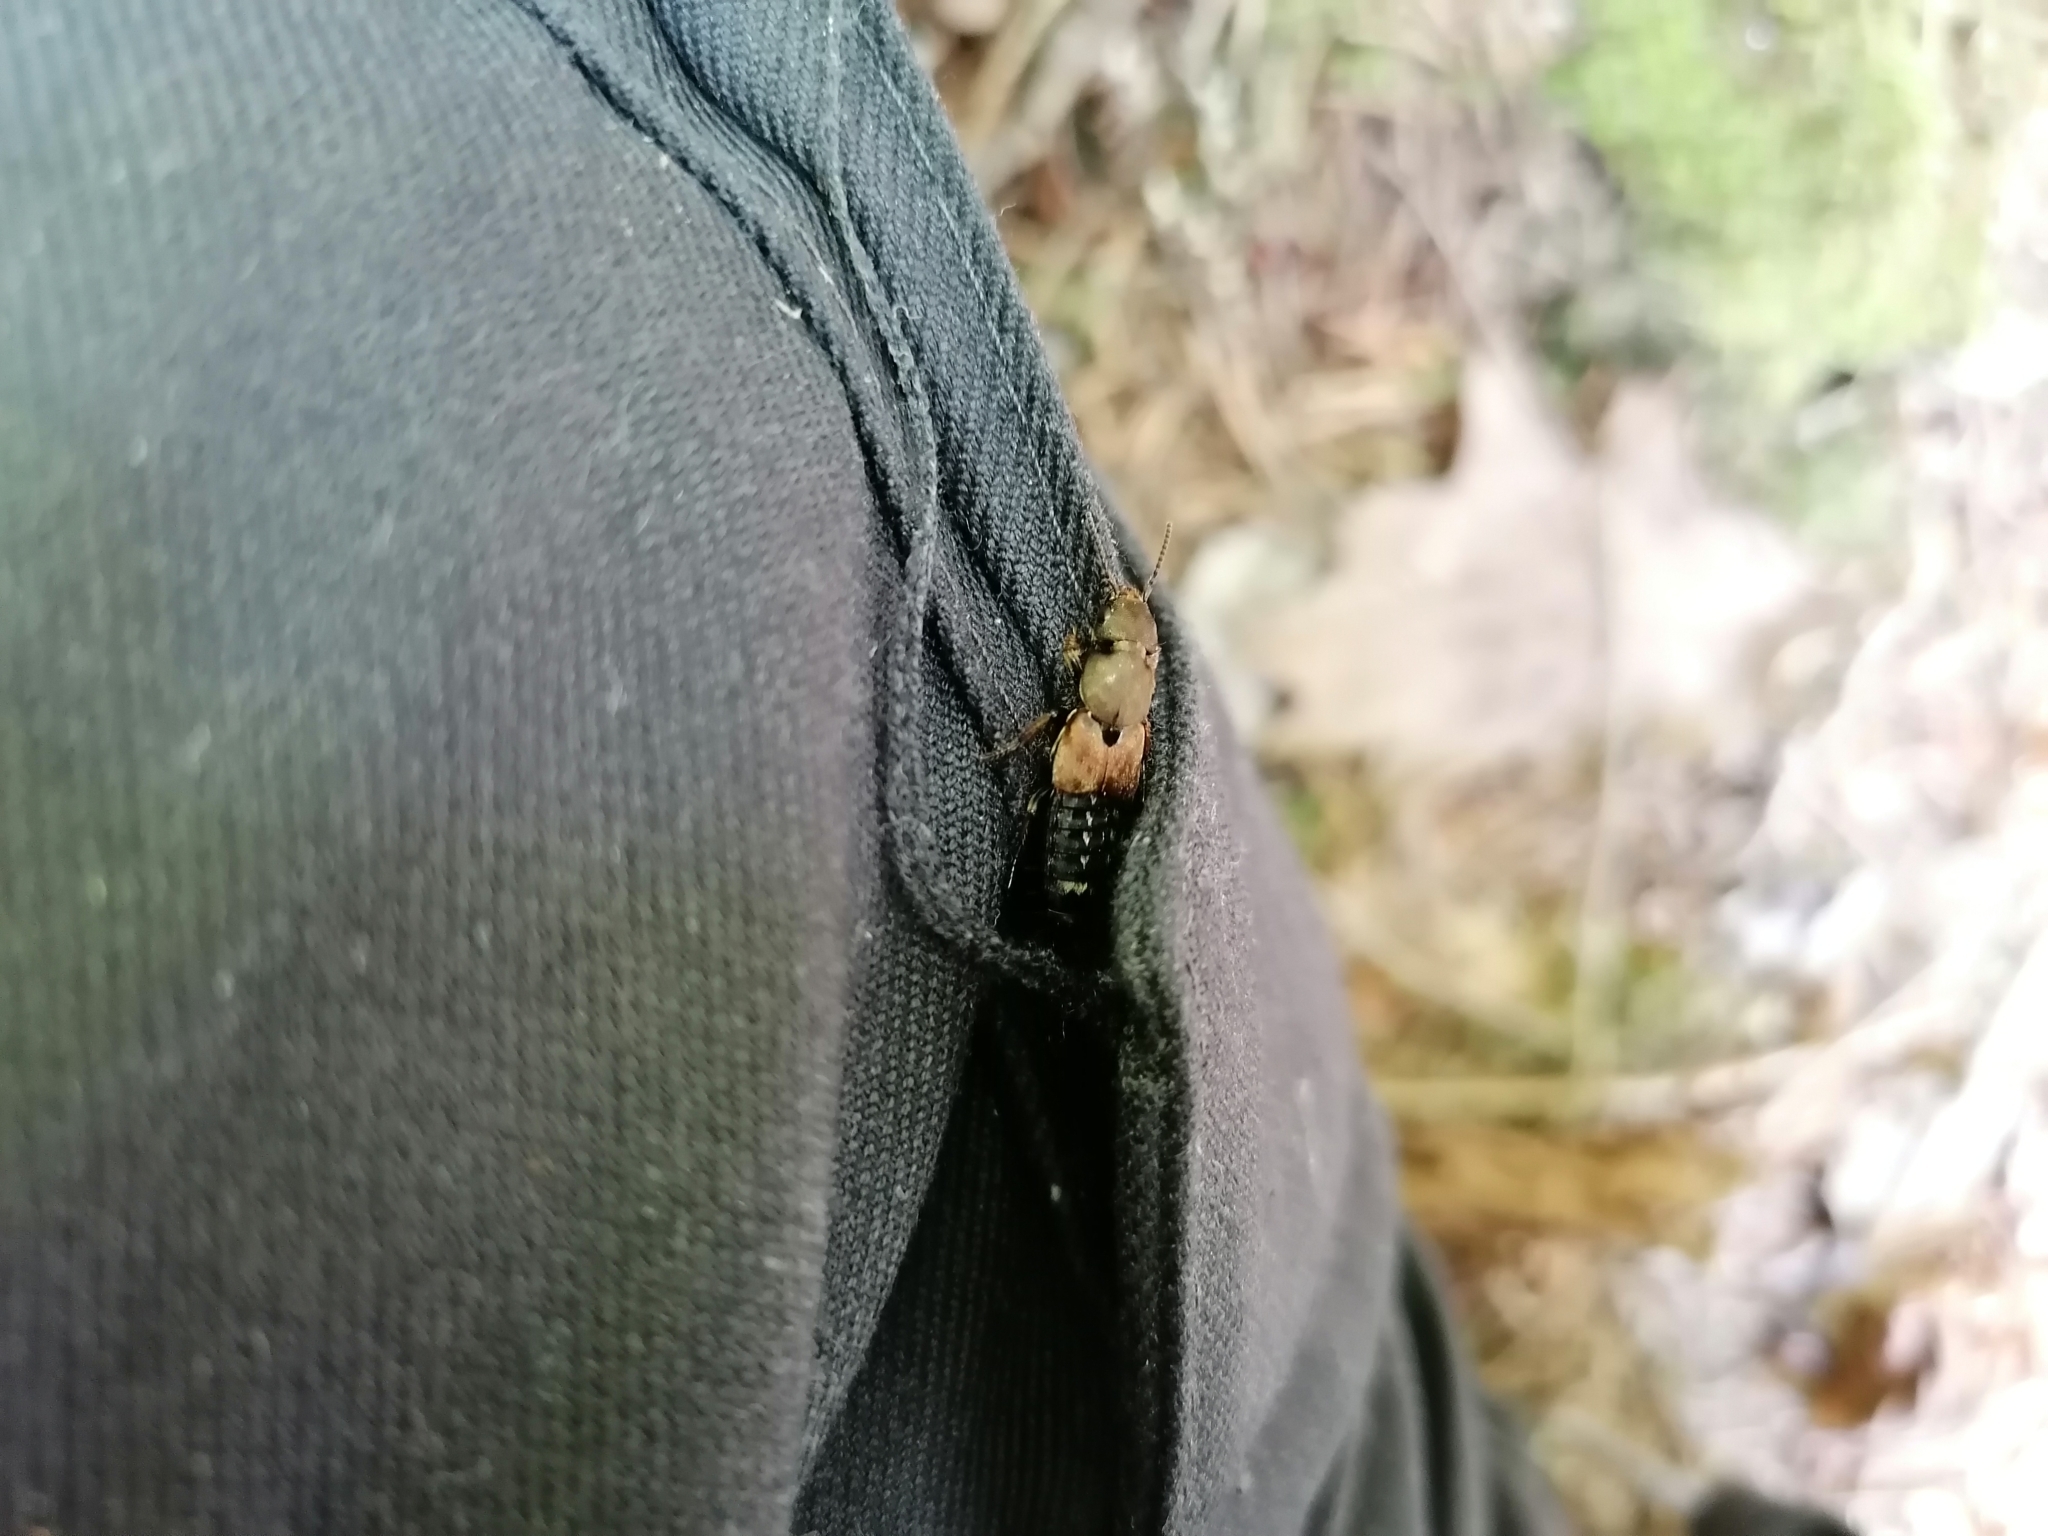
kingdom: Animalia
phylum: Arthropoda
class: Insecta
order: Coleoptera
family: Staphylinidae
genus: Platydracus
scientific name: Platydracus chalcocephalus
